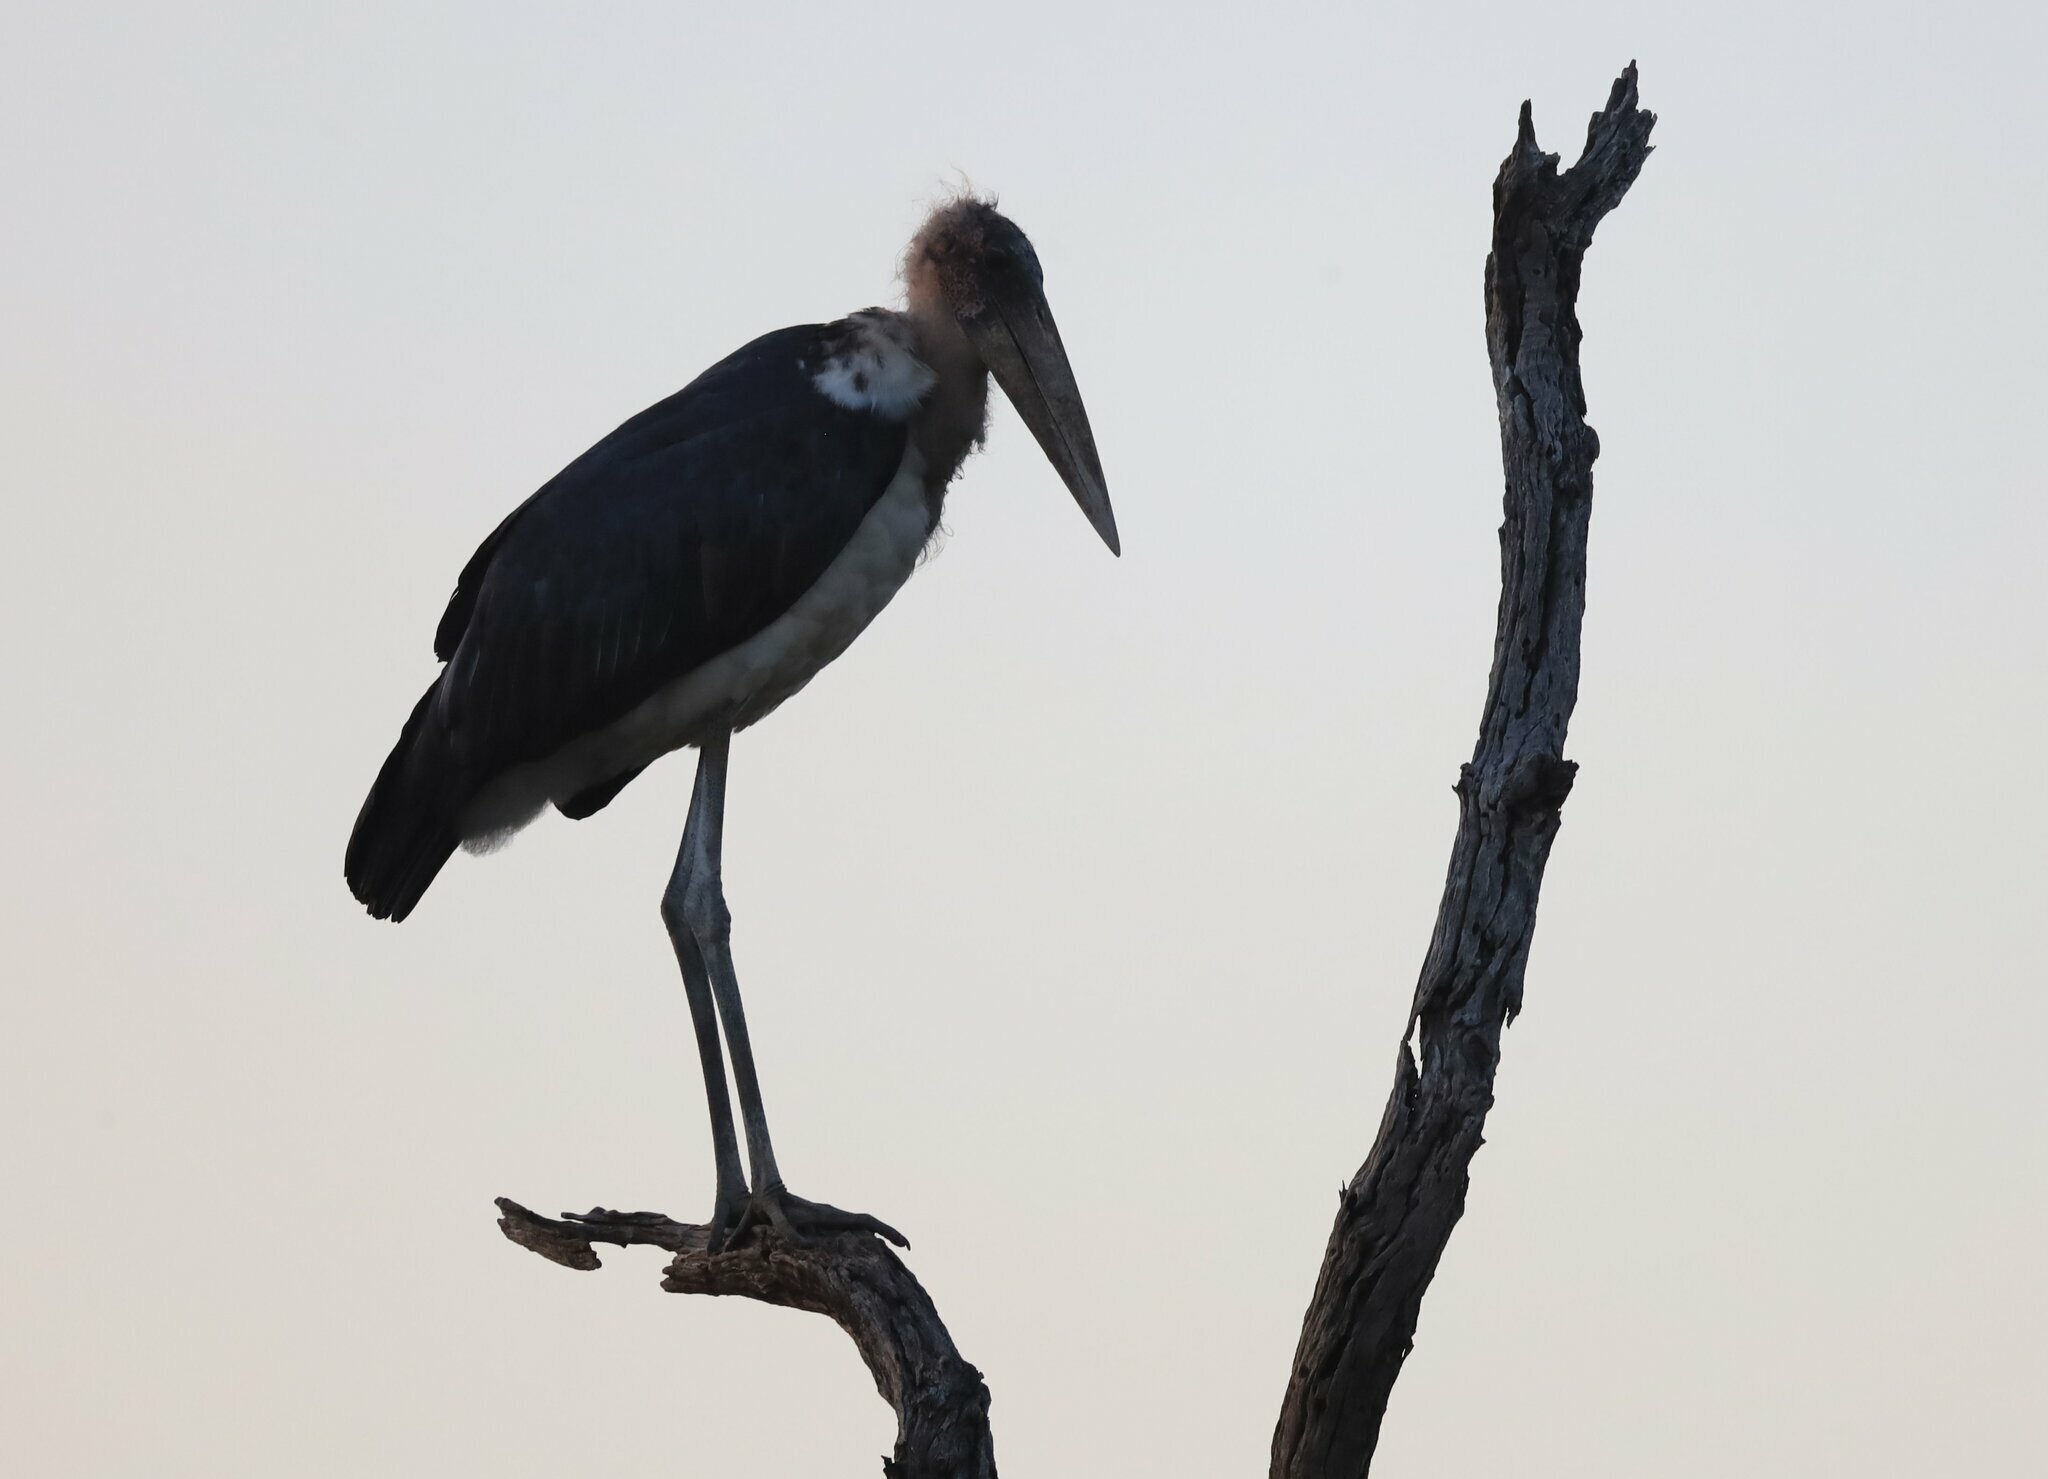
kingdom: Animalia
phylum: Chordata
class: Aves
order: Ciconiiformes
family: Ciconiidae
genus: Leptoptilos
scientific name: Leptoptilos crumenifer
